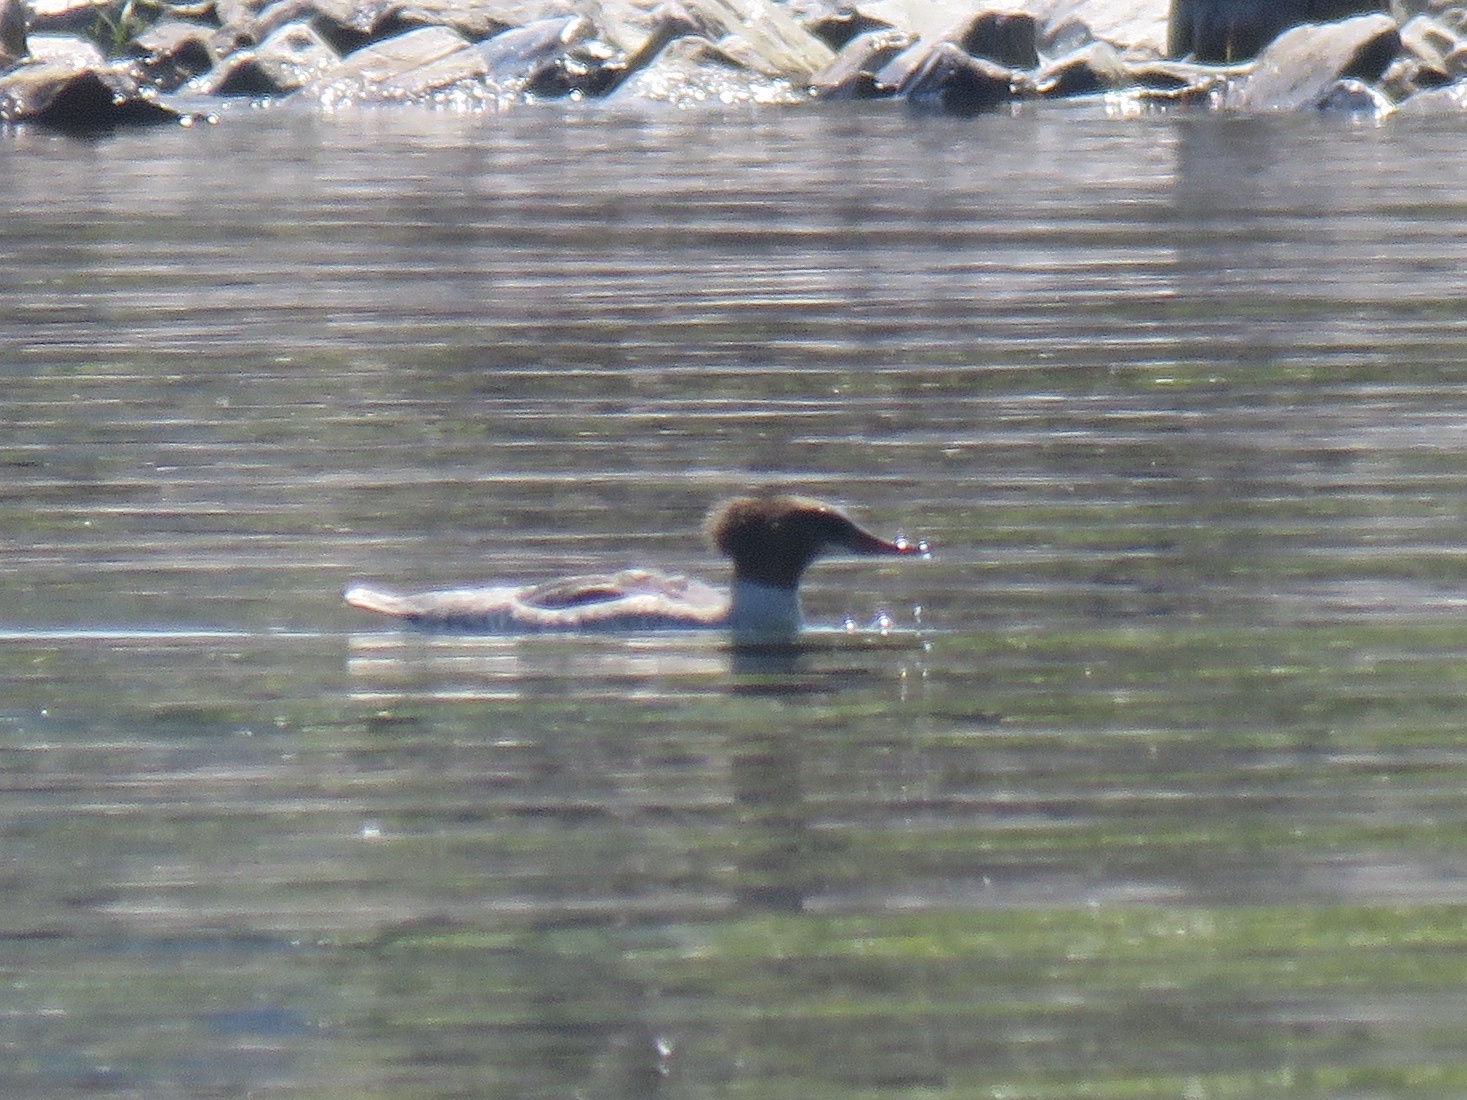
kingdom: Animalia
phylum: Chordata
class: Aves
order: Anseriformes
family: Anatidae
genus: Mergus
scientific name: Mergus merganser
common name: Common merganser
